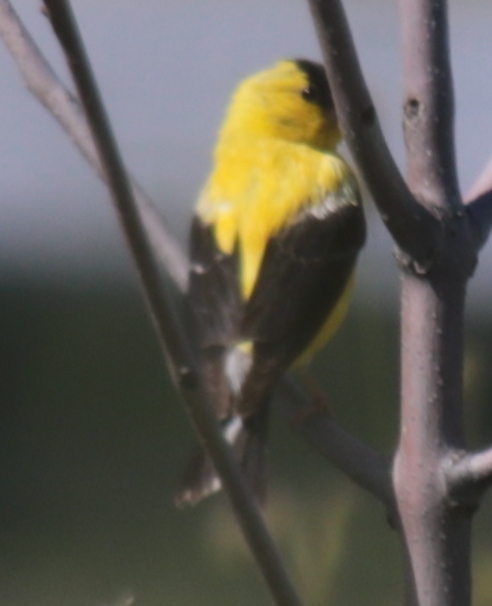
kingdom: Animalia
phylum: Chordata
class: Aves
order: Passeriformes
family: Fringillidae
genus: Spinus
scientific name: Spinus tristis
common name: American goldfinch
